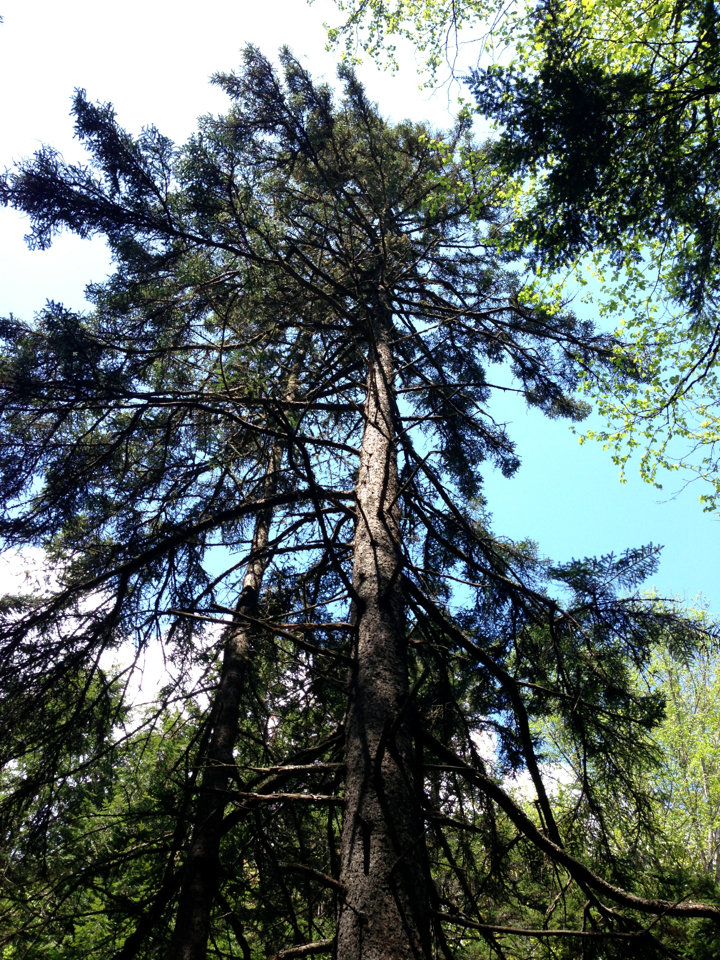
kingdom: Plantae
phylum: Tracheophyta
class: Pinopsida
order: Pinales
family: Pinaceae
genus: Picea
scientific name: Picea rubens
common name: Red spruce
